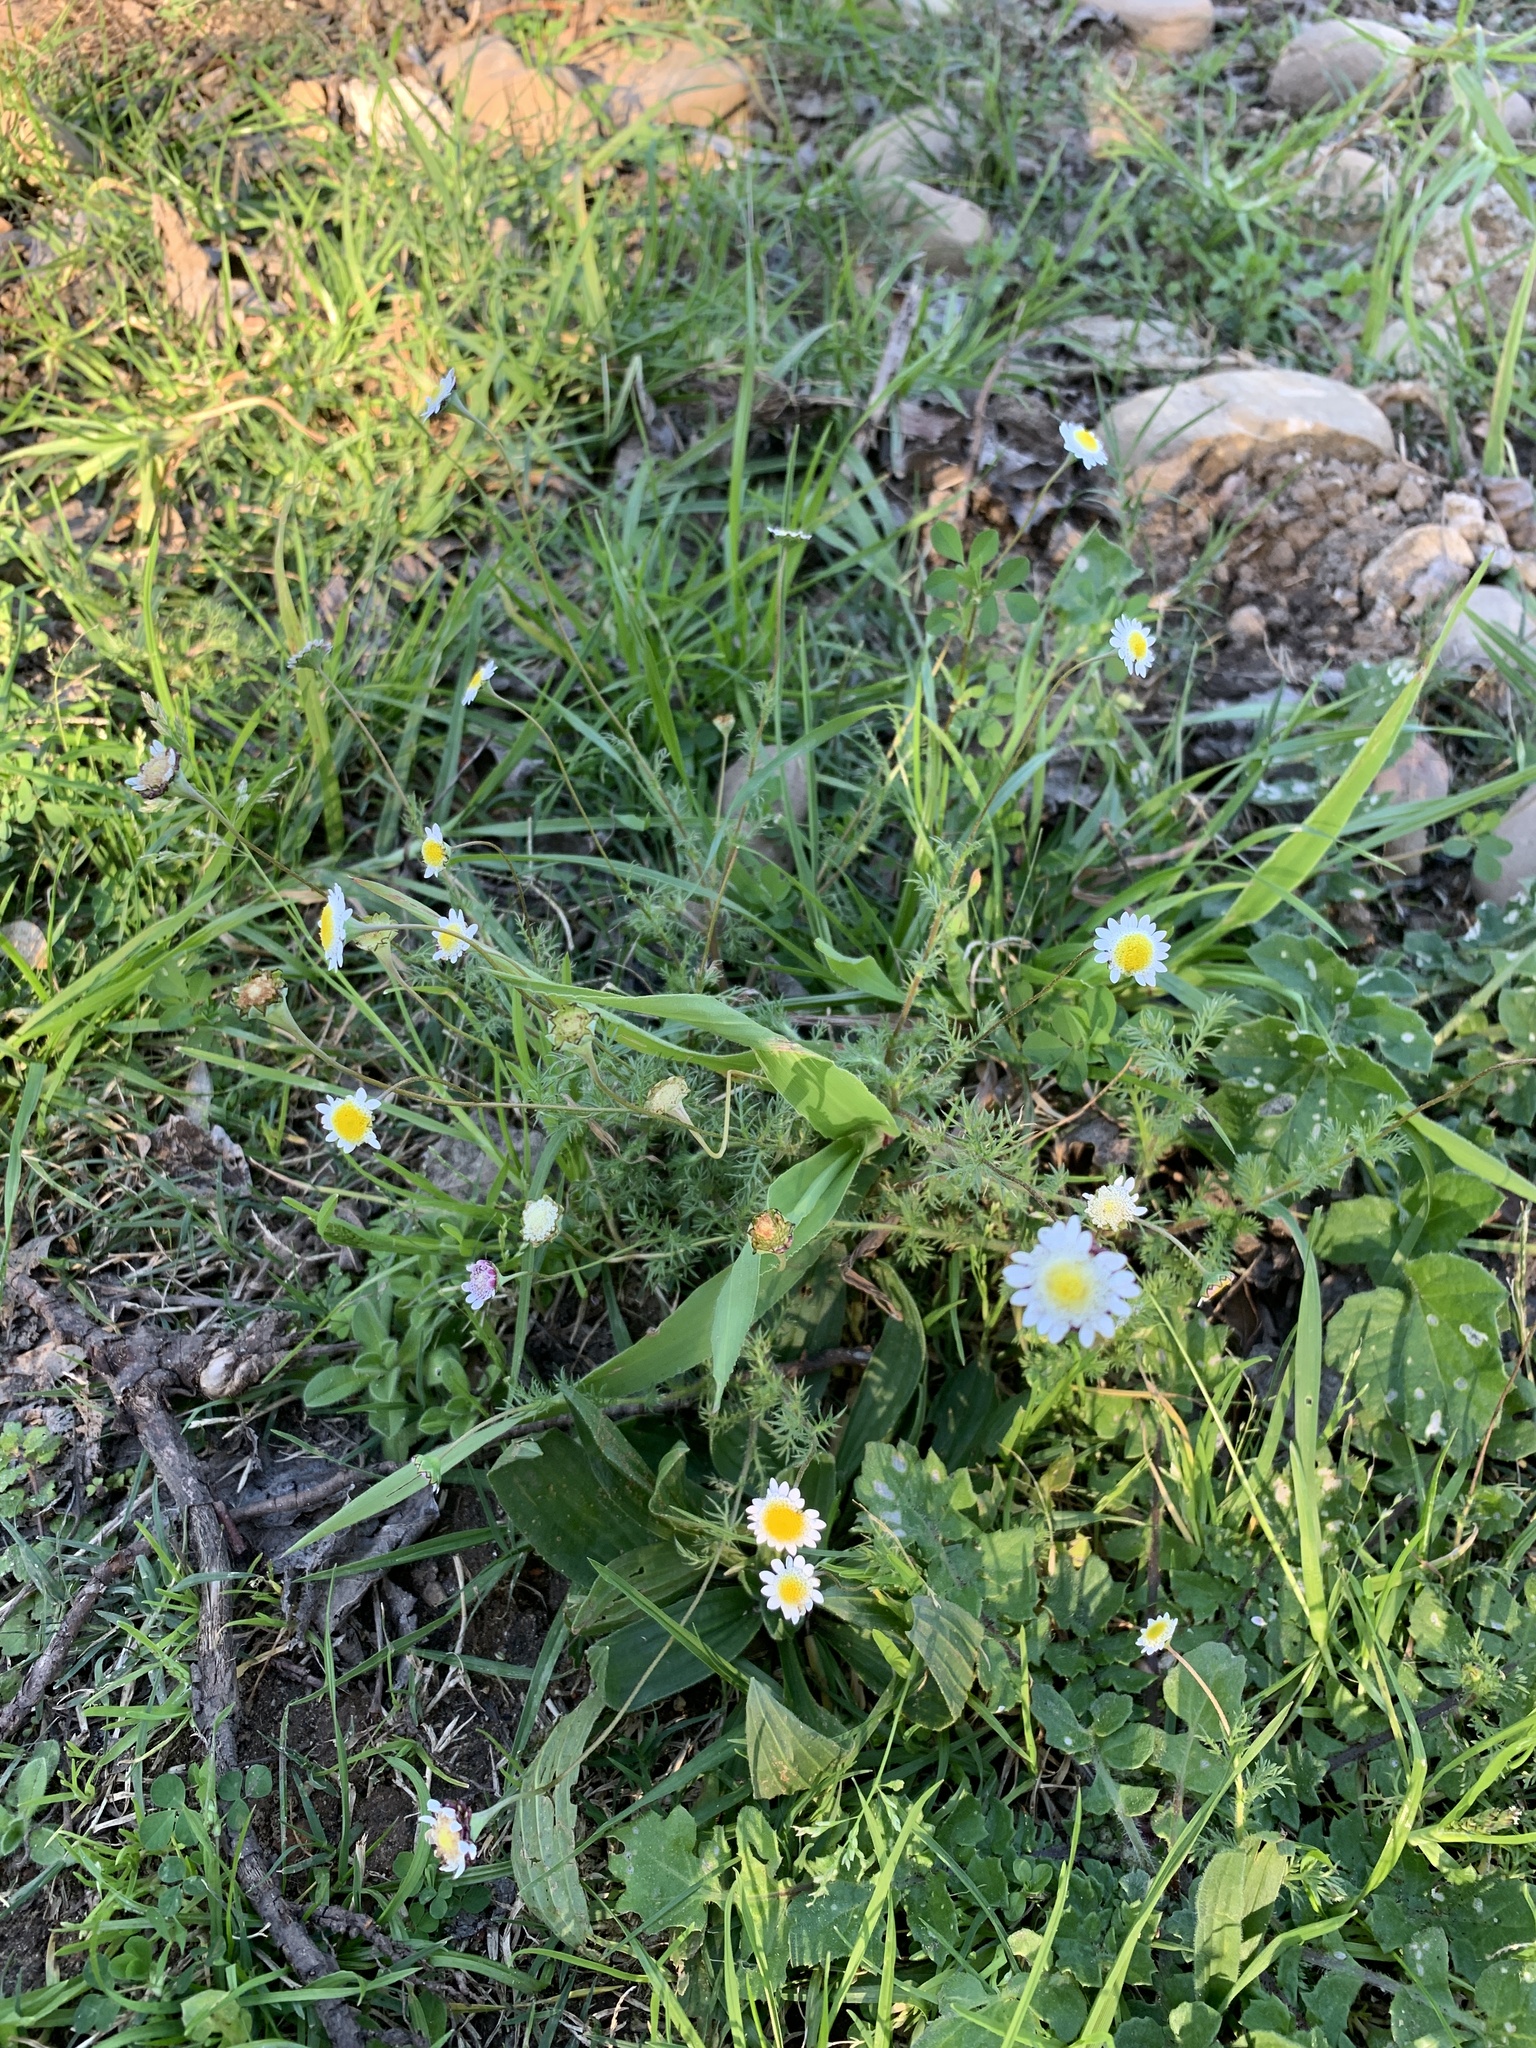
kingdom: Plantae
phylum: Tracheophyta
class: Magnoliopsida
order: Asterales
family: Asteraceae
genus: Cotula
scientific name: Cotula turbinata
